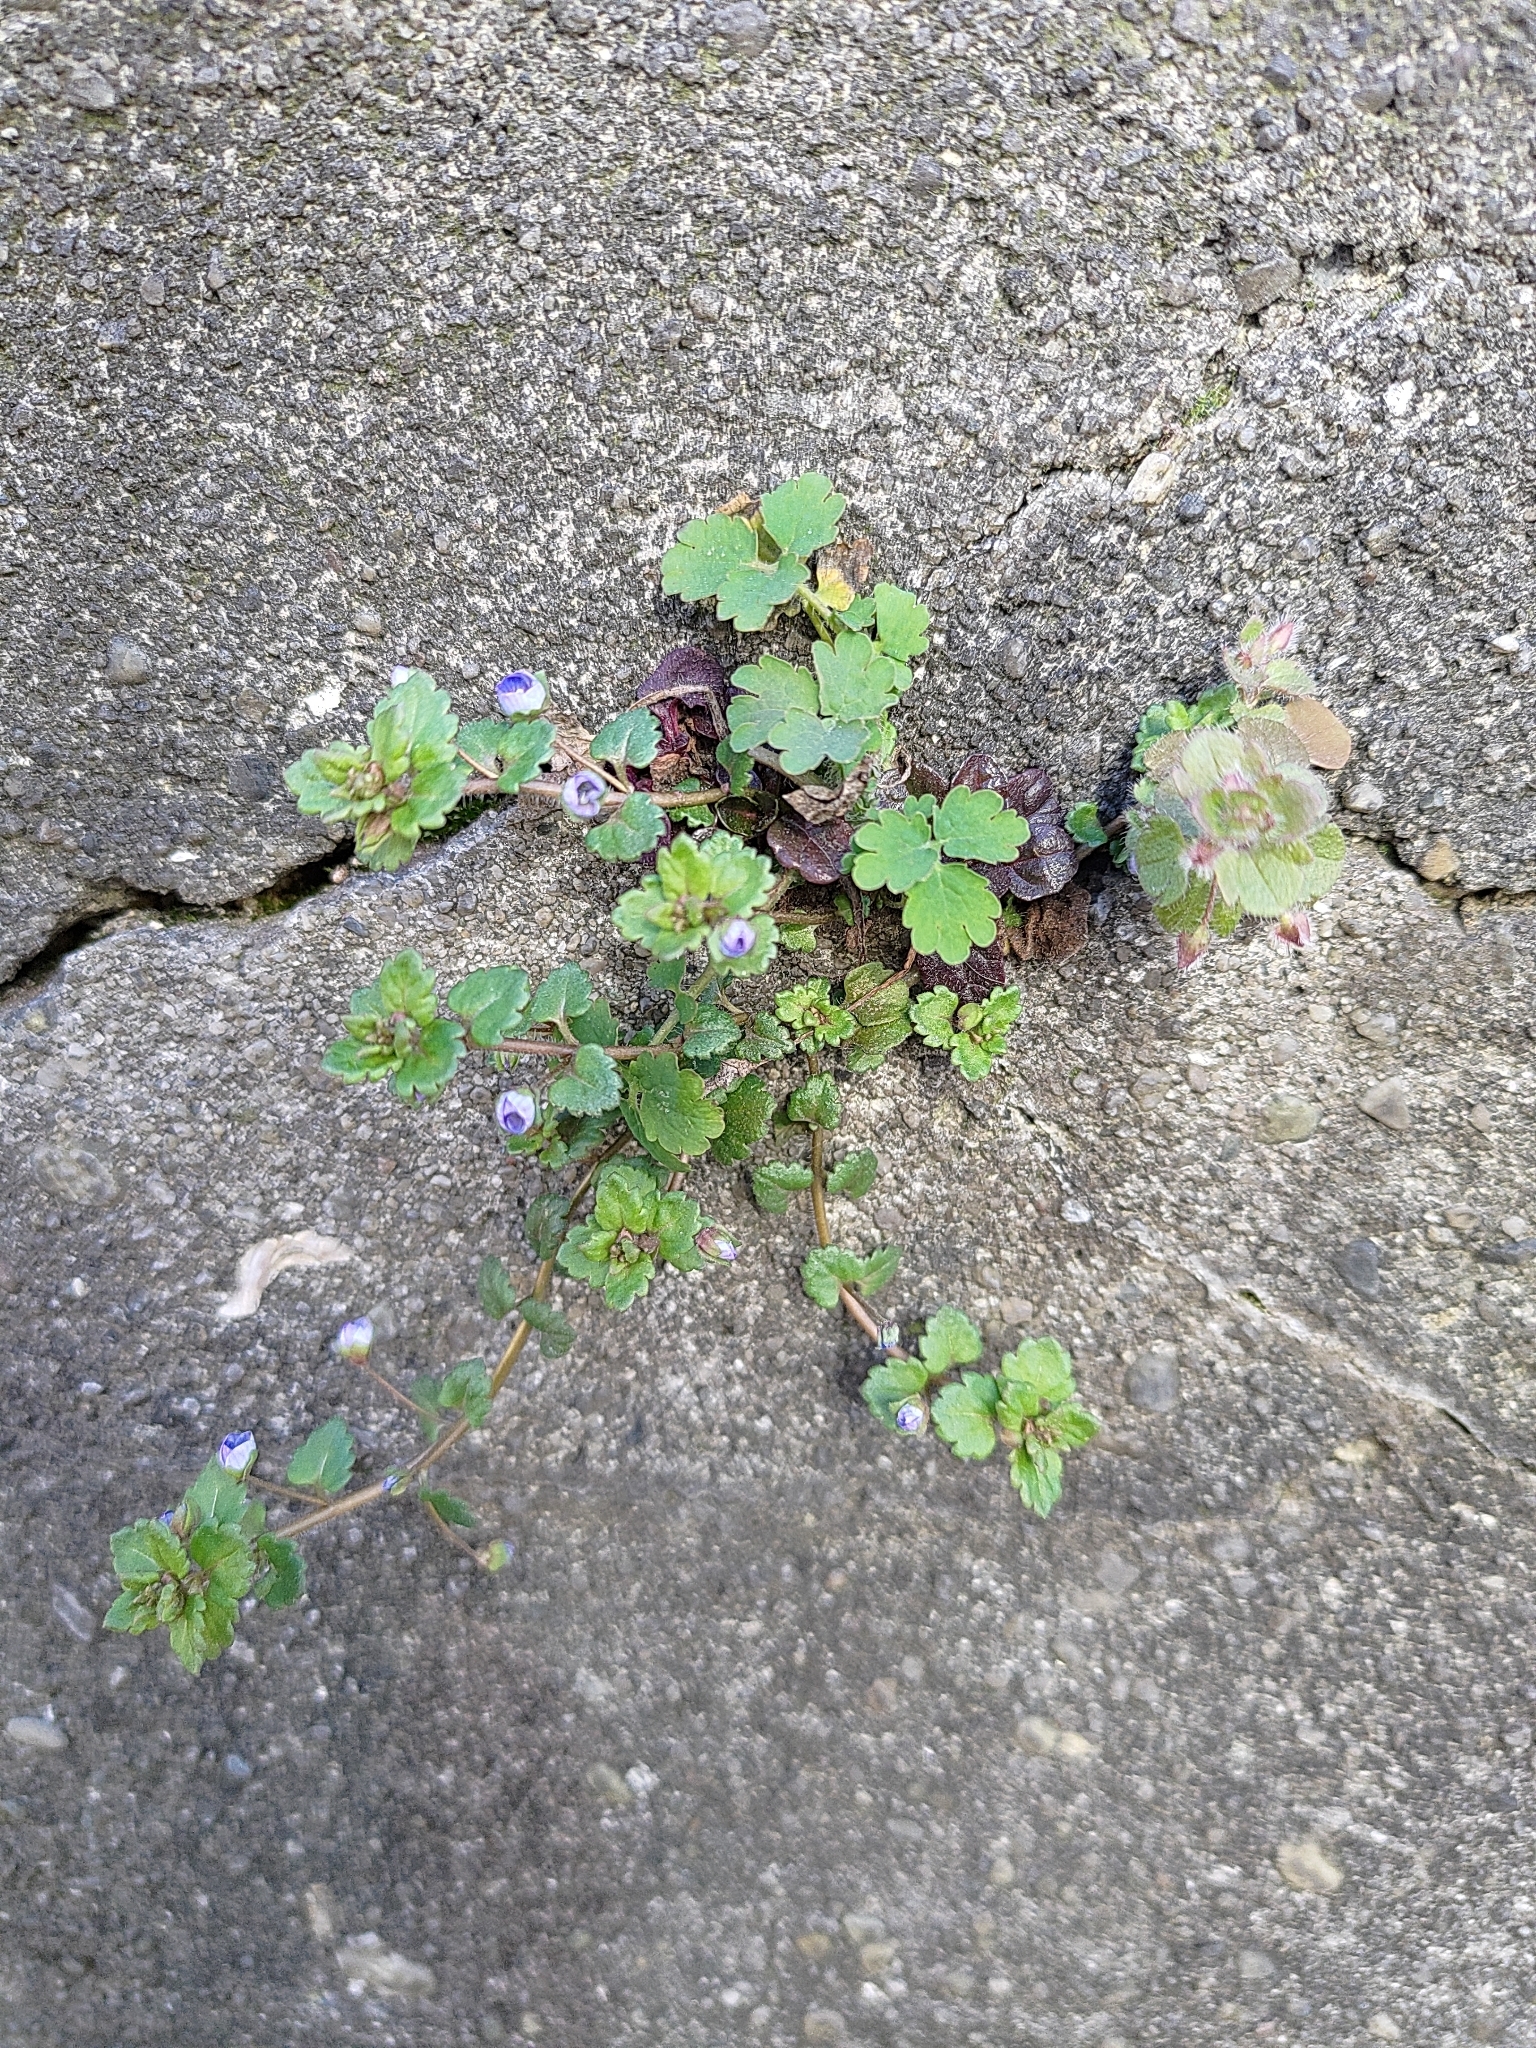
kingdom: Plantae
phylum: Tracheophyta
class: Magnoliopsida
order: Lamiales
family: Plantaginaceae
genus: Veronica
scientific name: Veronica persica
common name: Common field-speedwell
